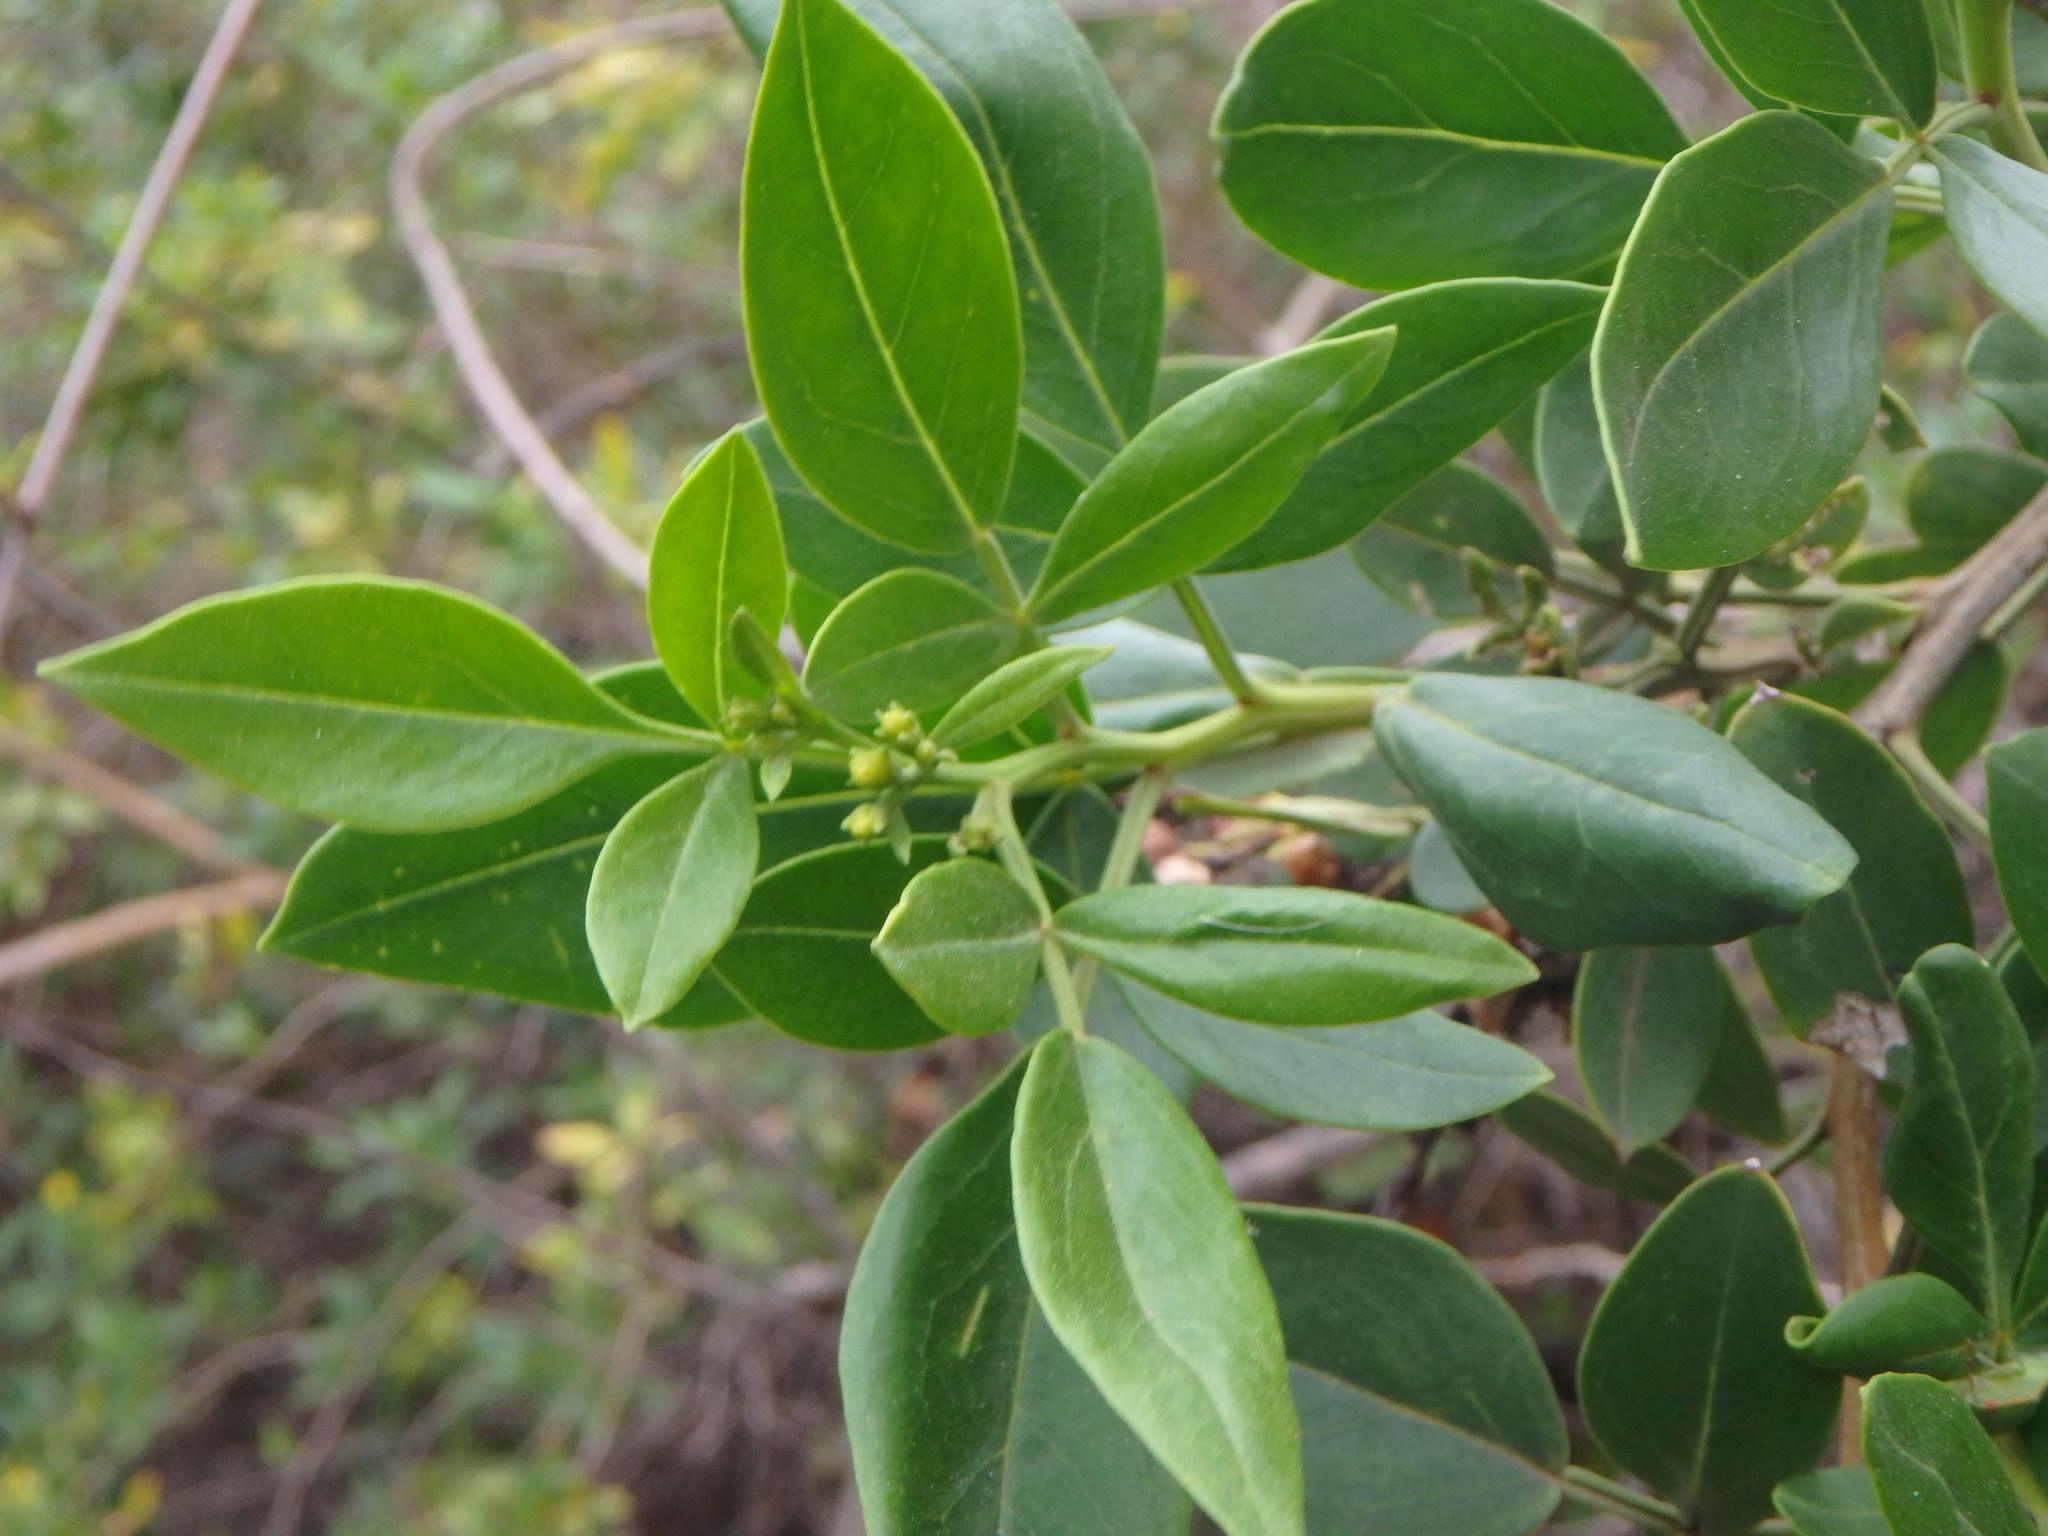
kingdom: Plantae
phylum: Tracheophyta
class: Magnoliopsida
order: Lamiales
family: Oleaceae
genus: Chrysojasminum
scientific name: Chrysojasminum odoratissimum
